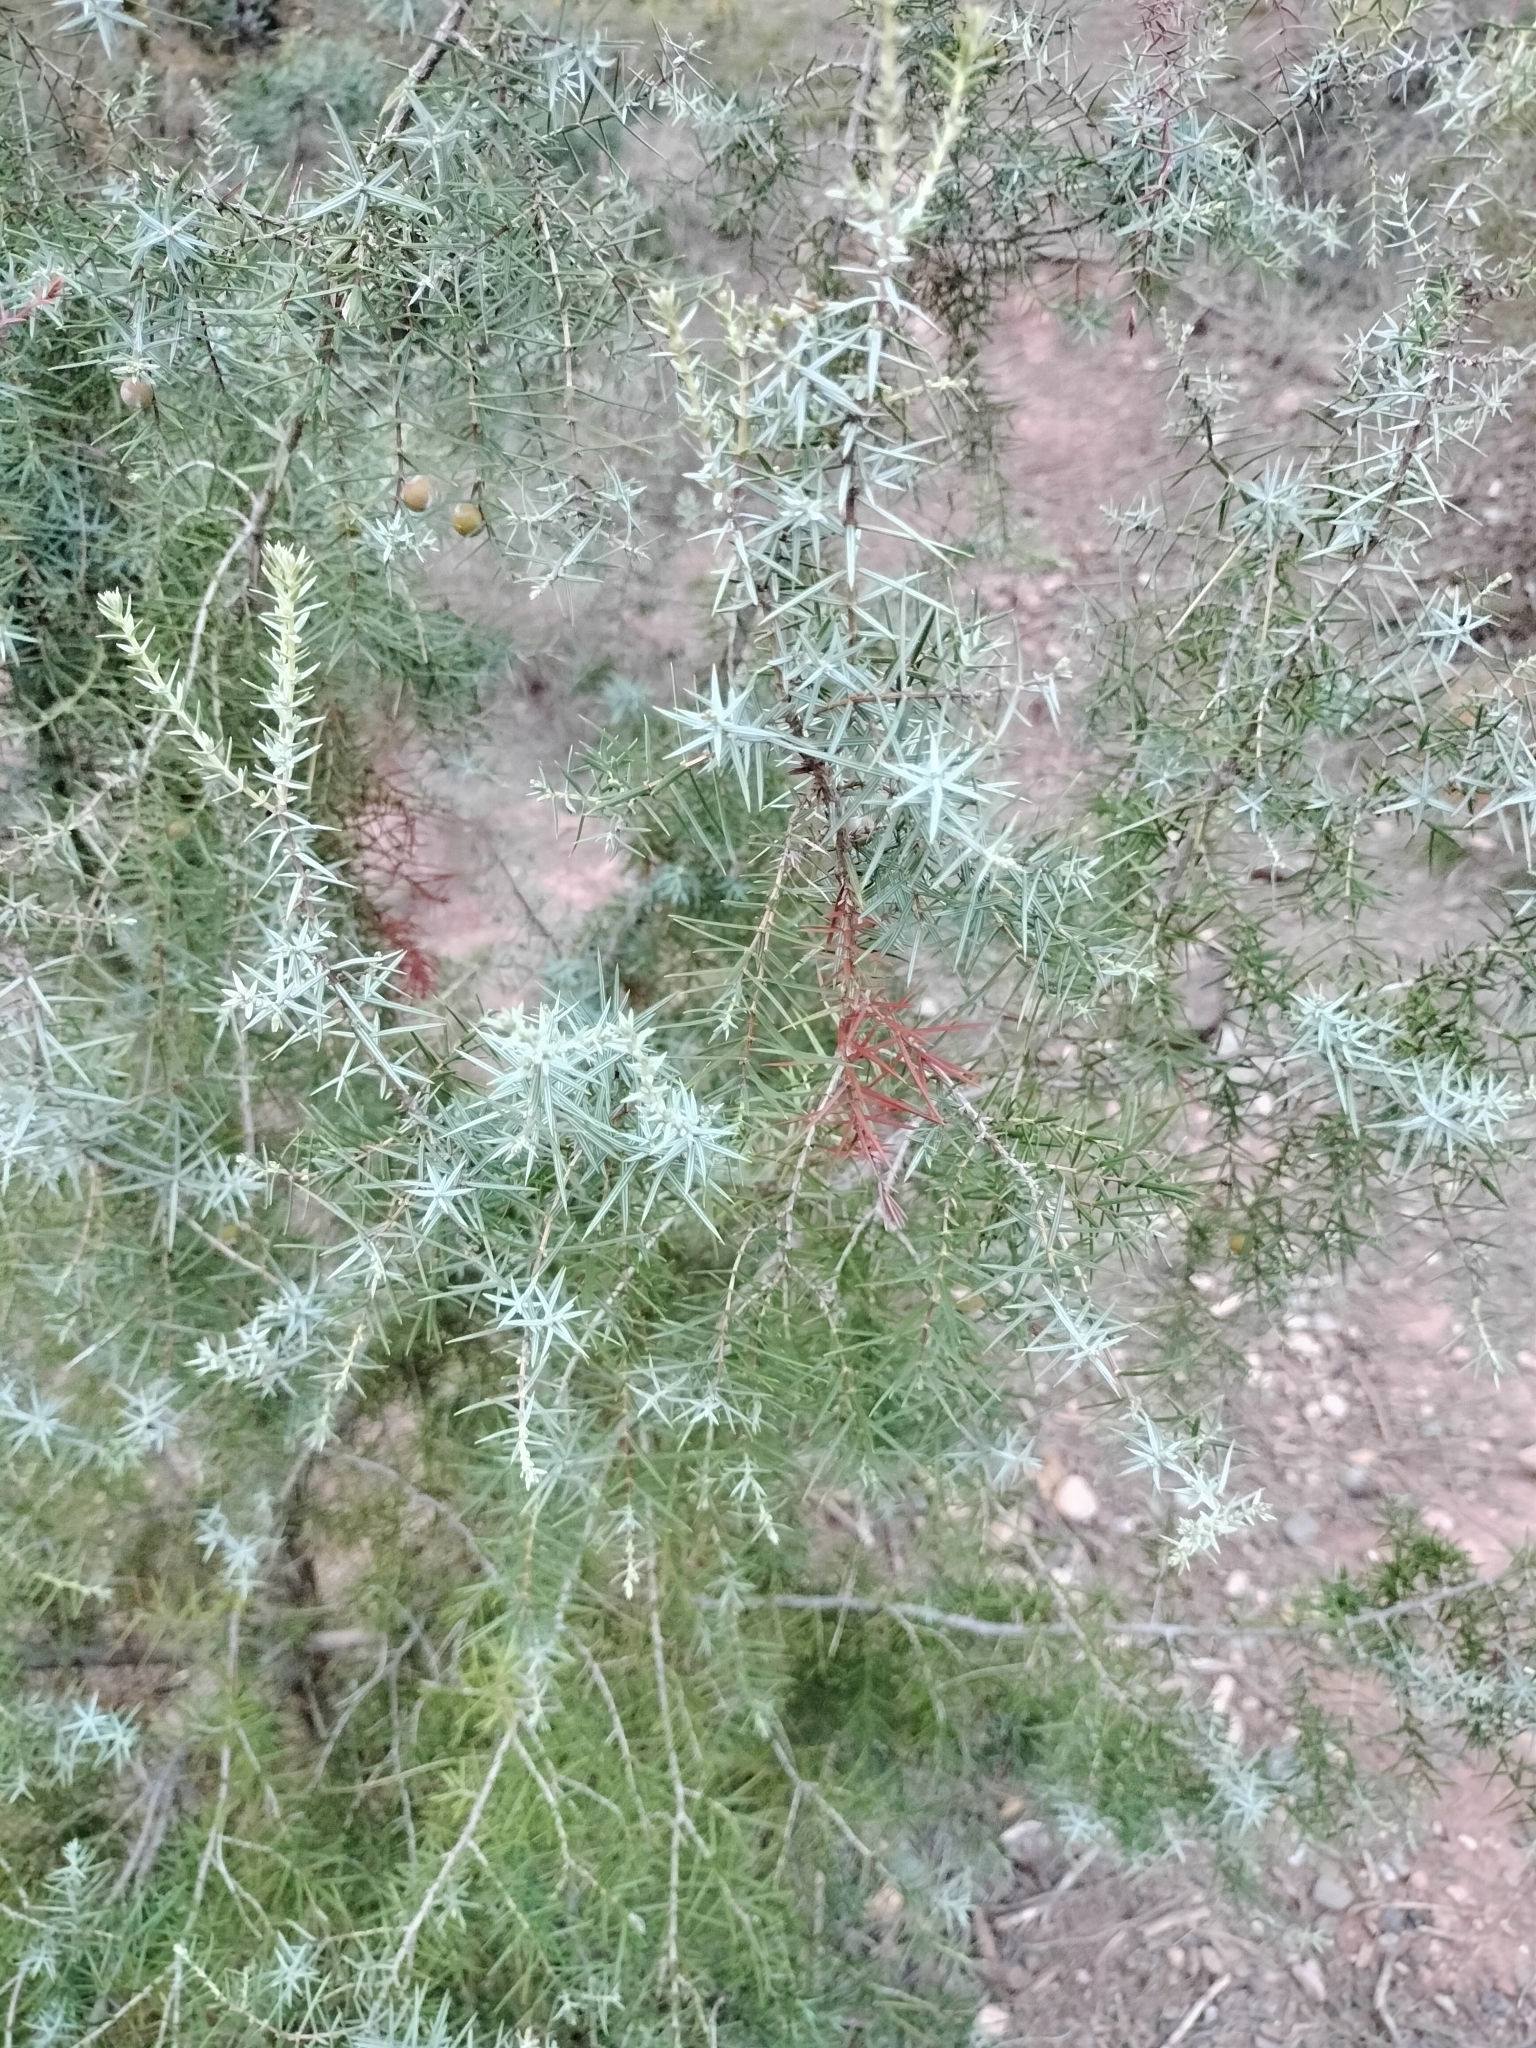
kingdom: Plantae
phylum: Tracheophyta
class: Pinopsida
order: Pinales
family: Cupressaceae
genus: Juniperus
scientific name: Juniperus oxycedrus
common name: Prickly juniper
